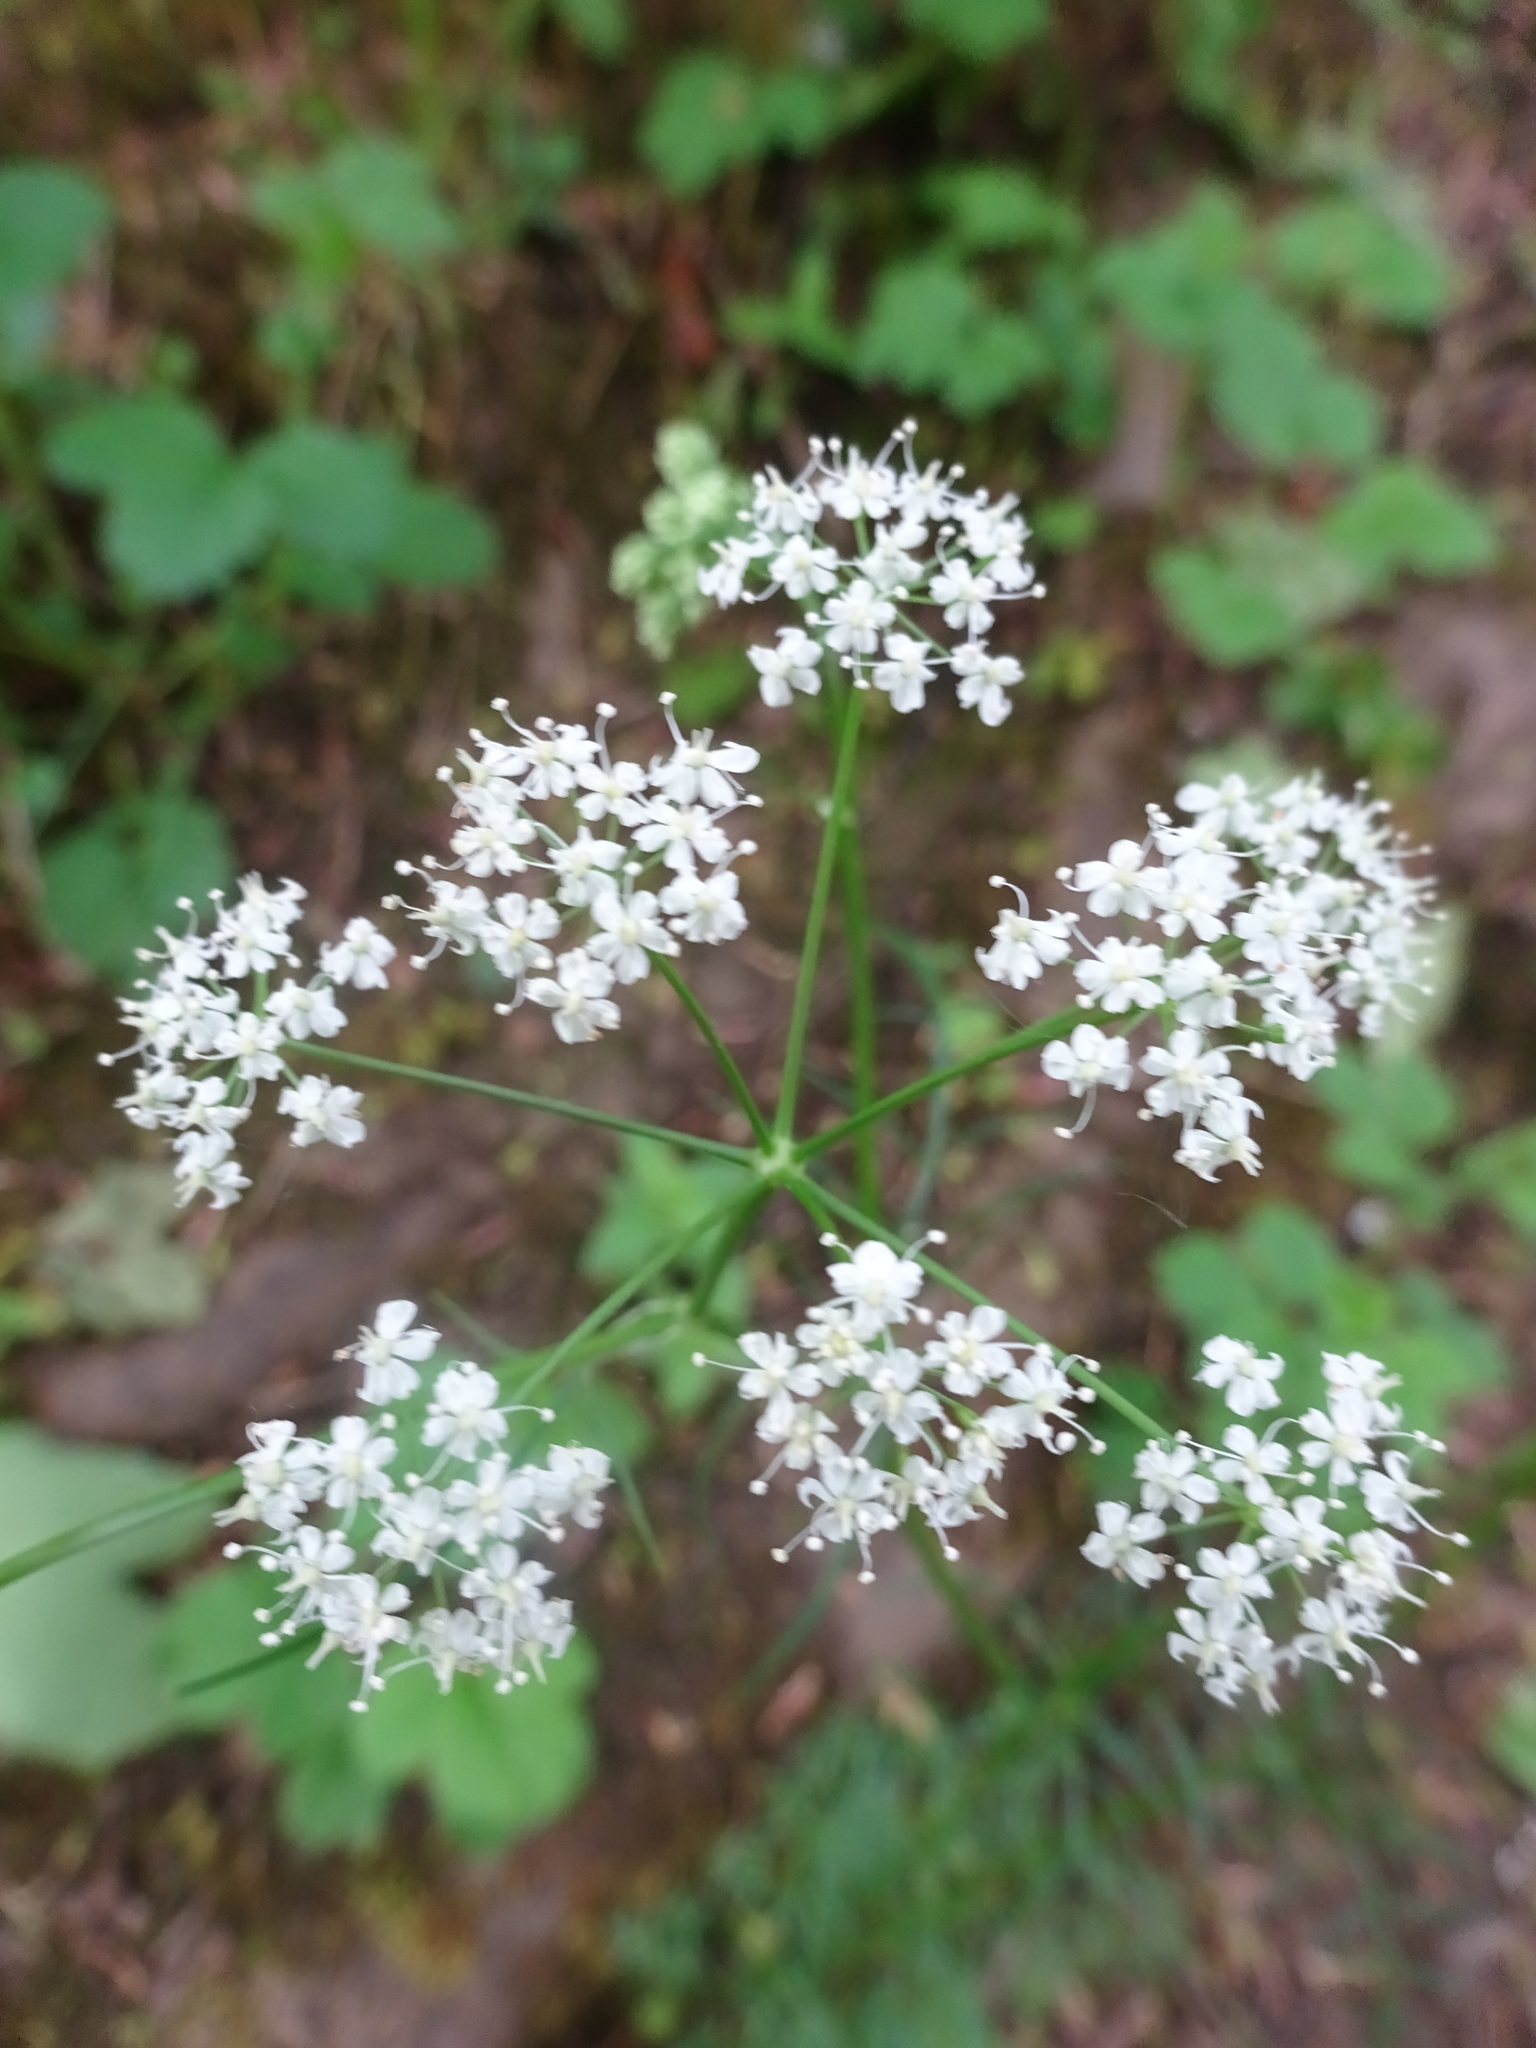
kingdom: Plantae
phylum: Tracheophyta
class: Magnoliopsida
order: Apiales
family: Apiaceae
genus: Conopodium
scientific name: Conopodium majus
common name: Pignut
